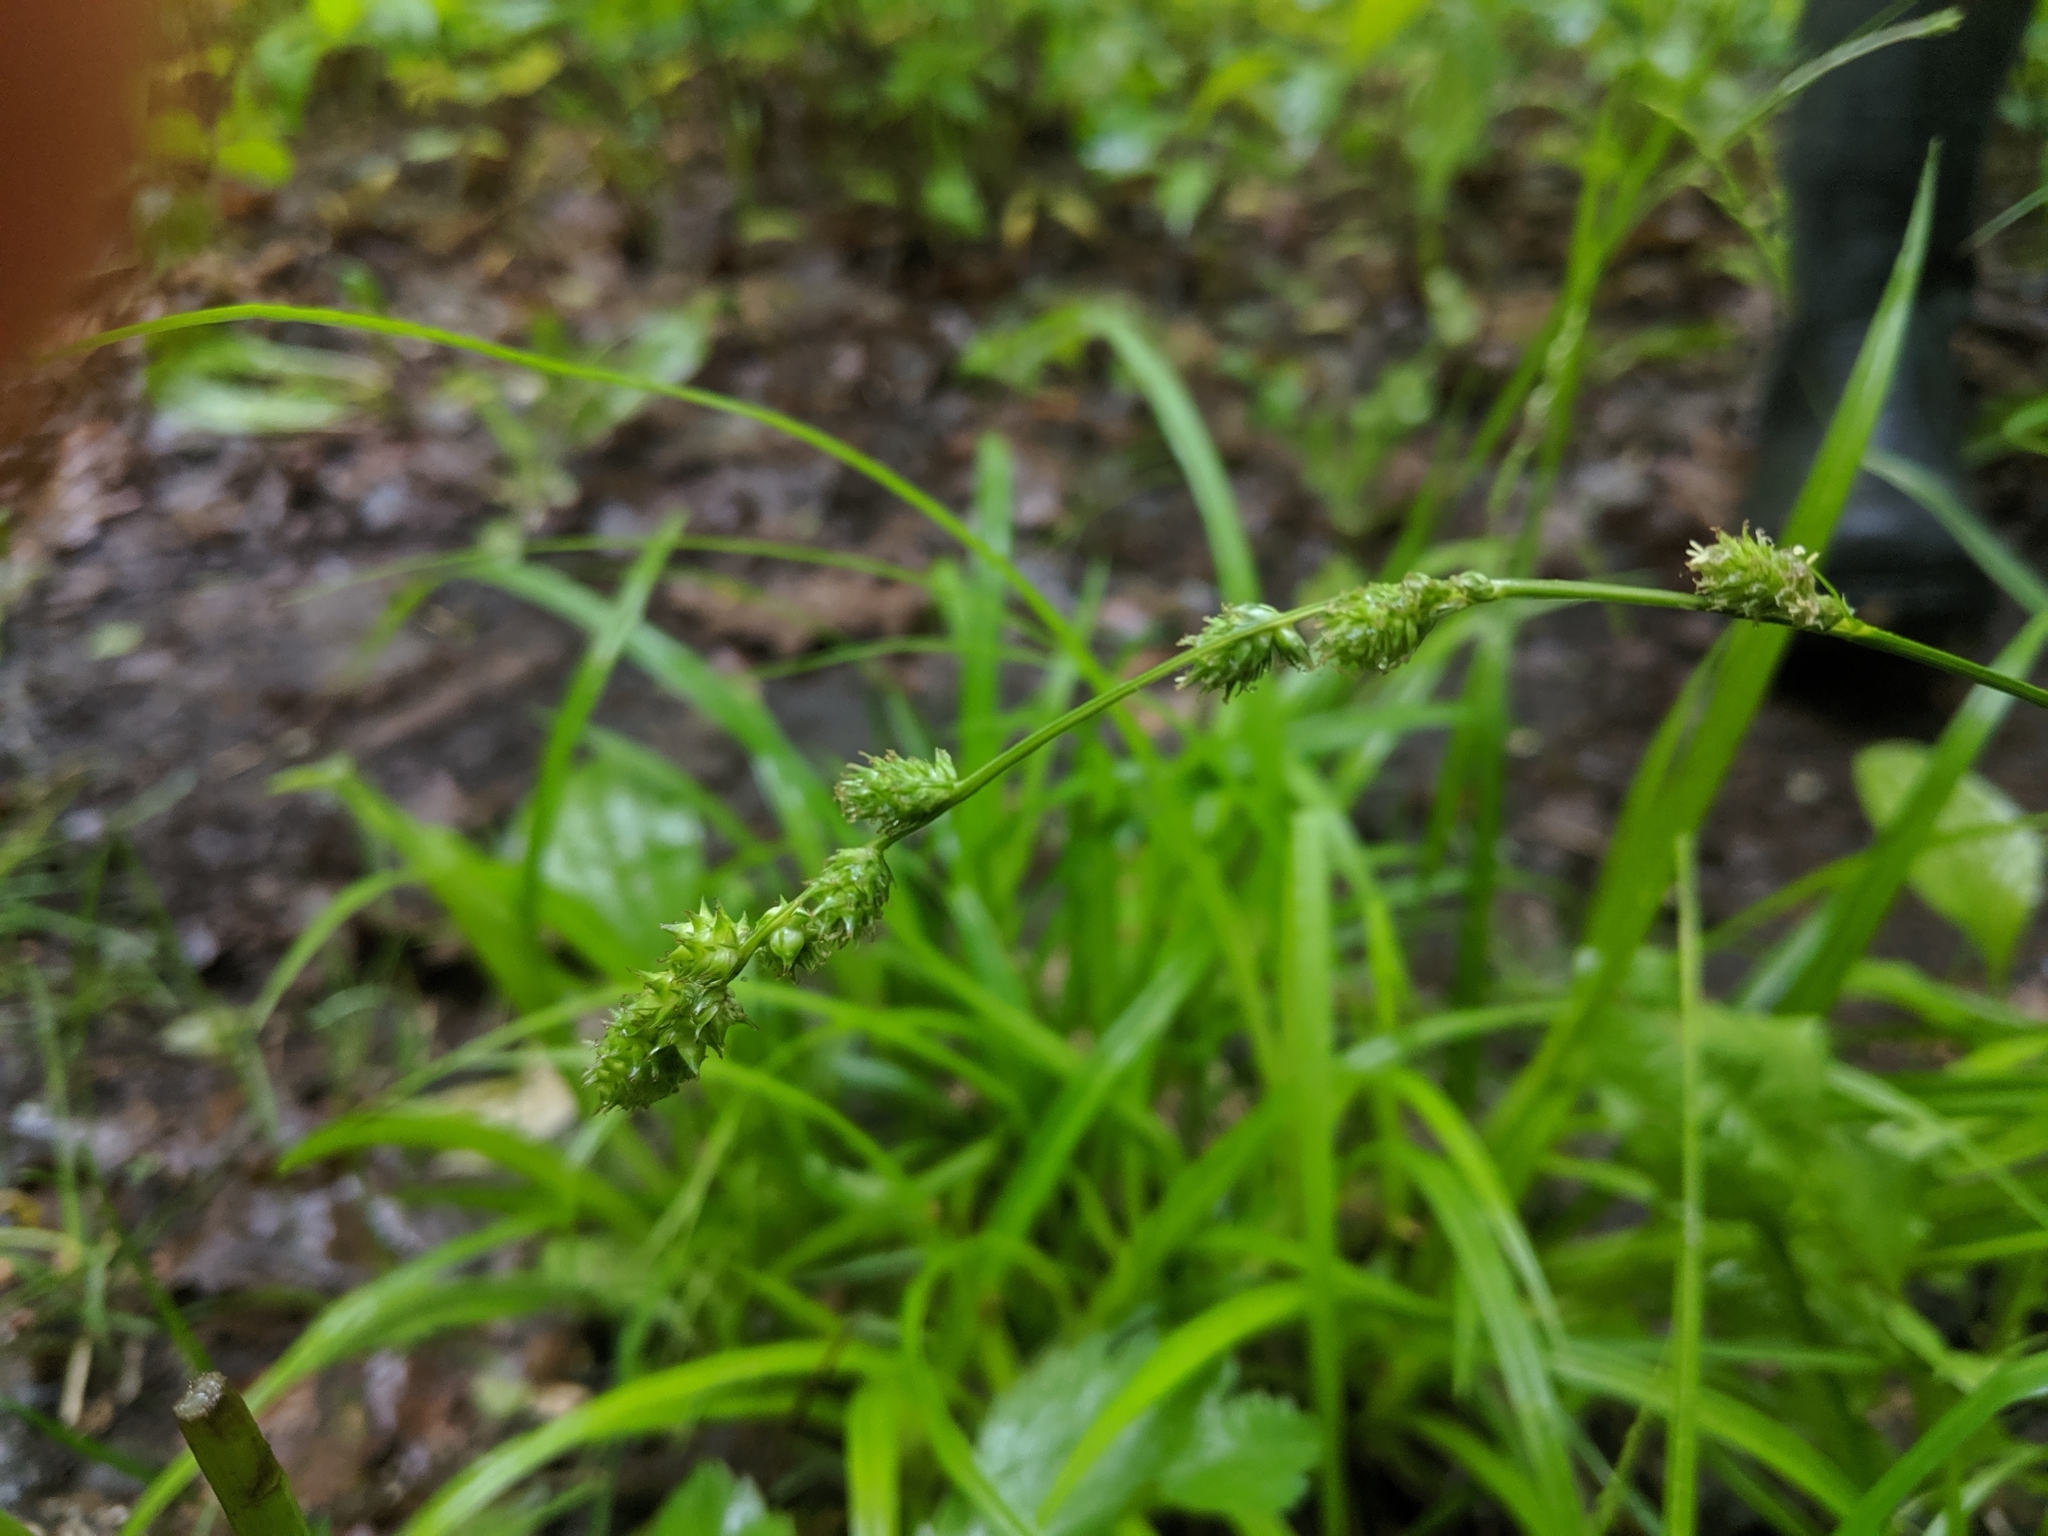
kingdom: Plantae
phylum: Tracheophyta
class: Liliopsida
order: Poales
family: Cyperaceae
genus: Carex
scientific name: Carex sparganioides
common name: Burreed sedge
